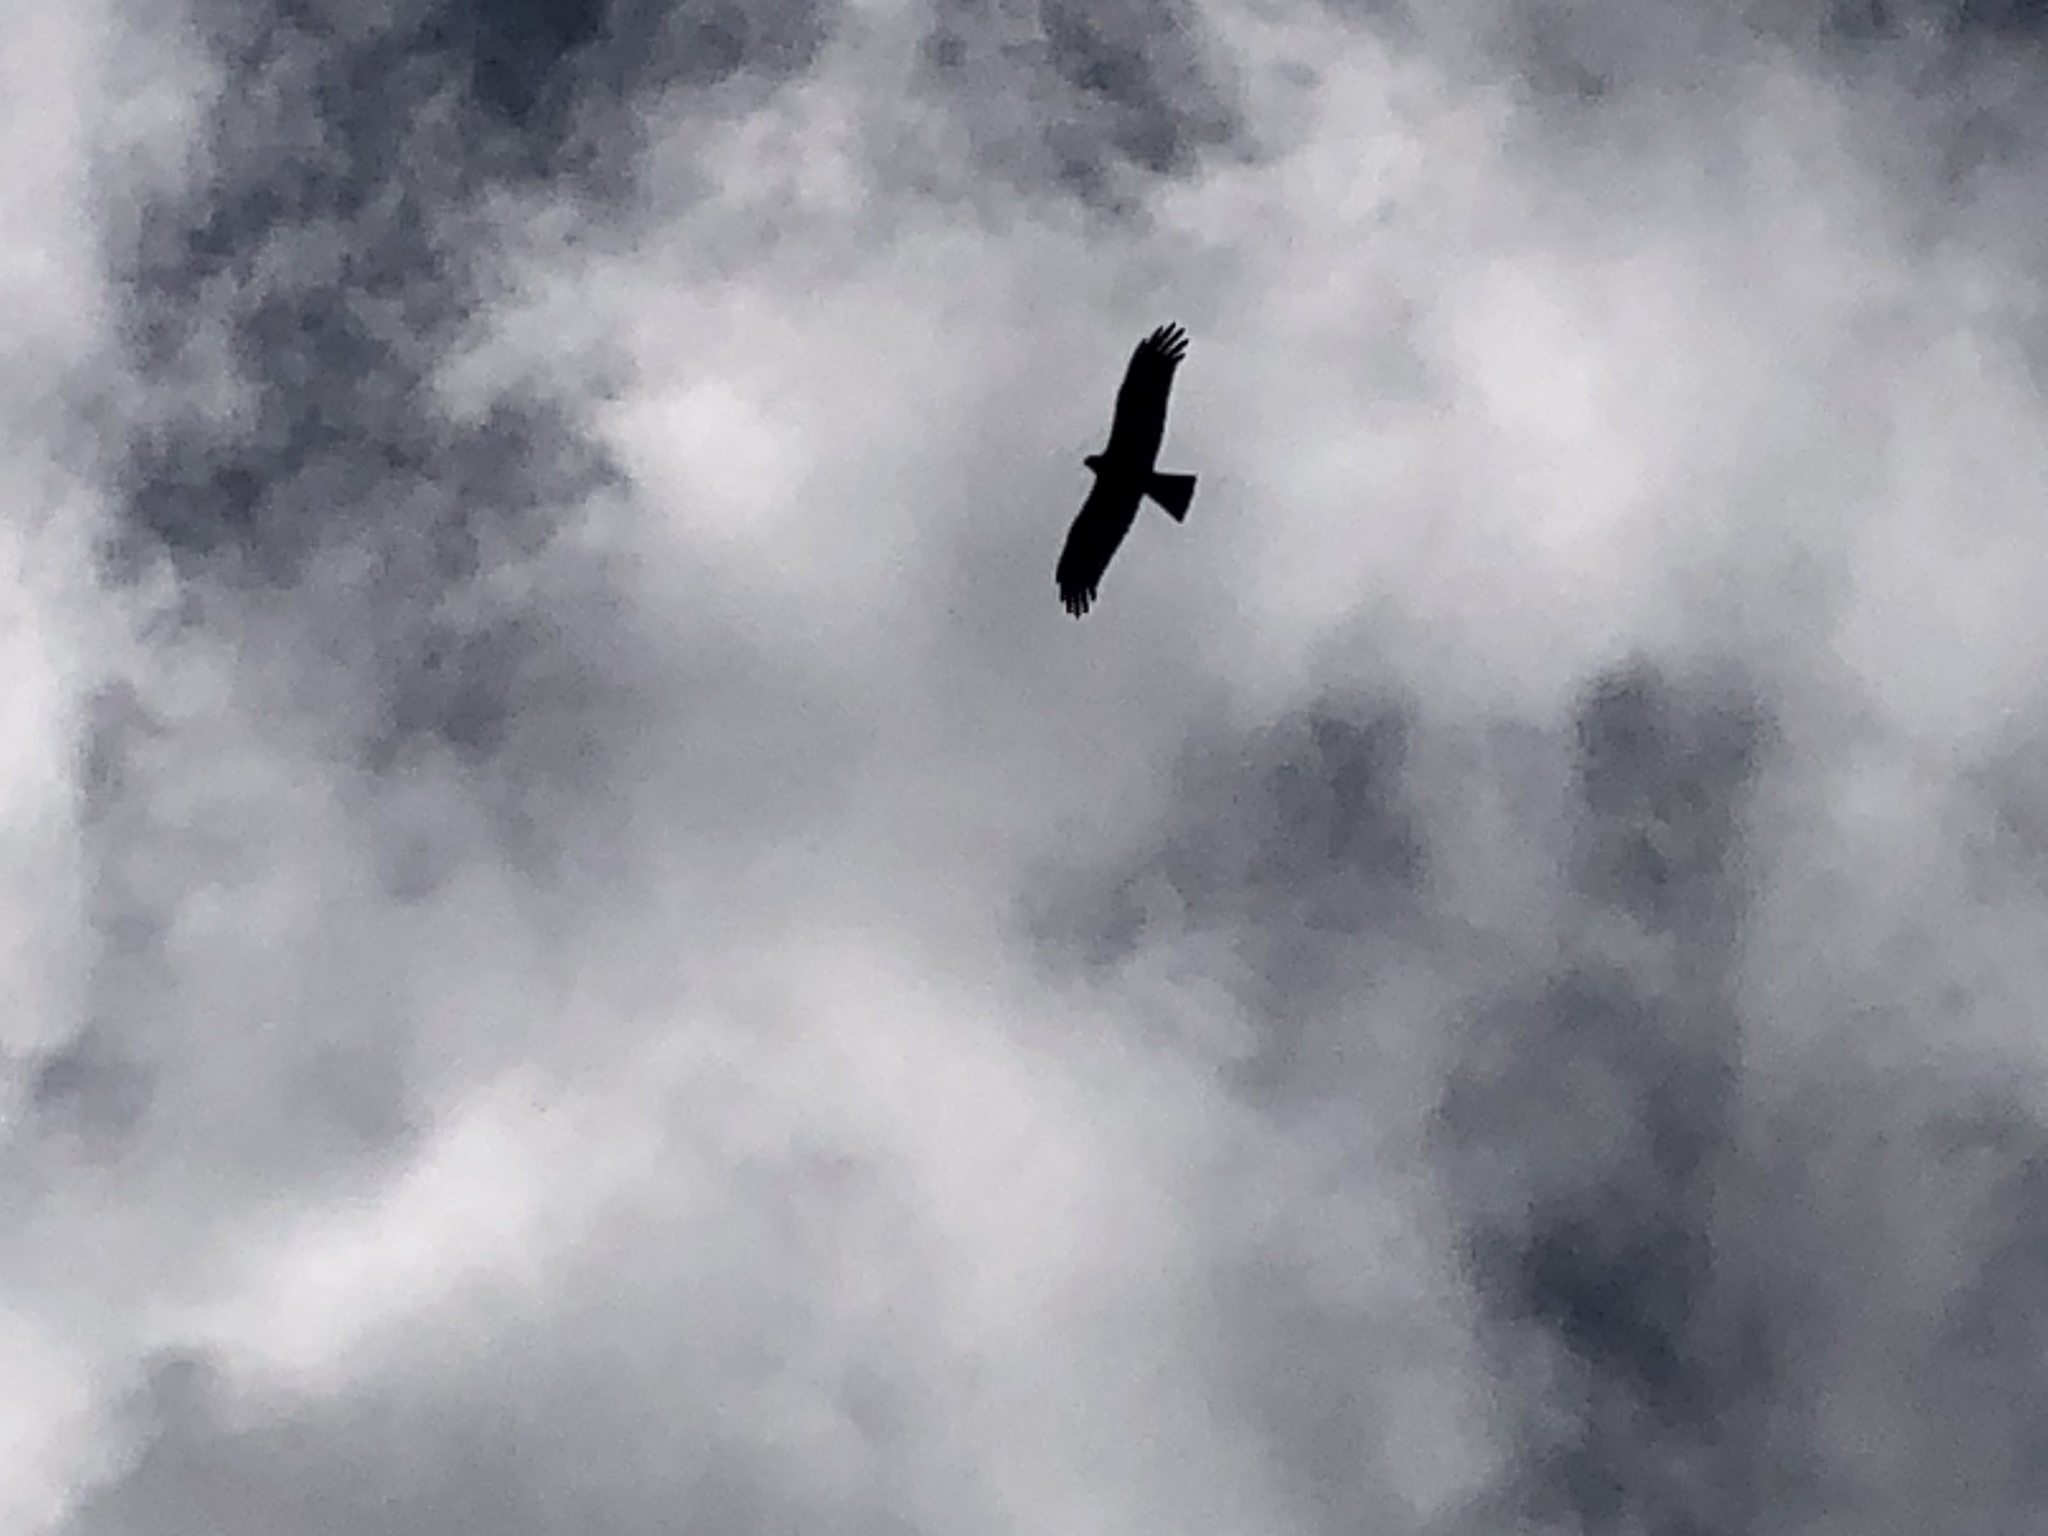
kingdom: Animalia
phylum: Chordata
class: Aves
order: Accipitriformes
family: Accipitridae
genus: Milvus
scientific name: Milvus migrans
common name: Black kite
